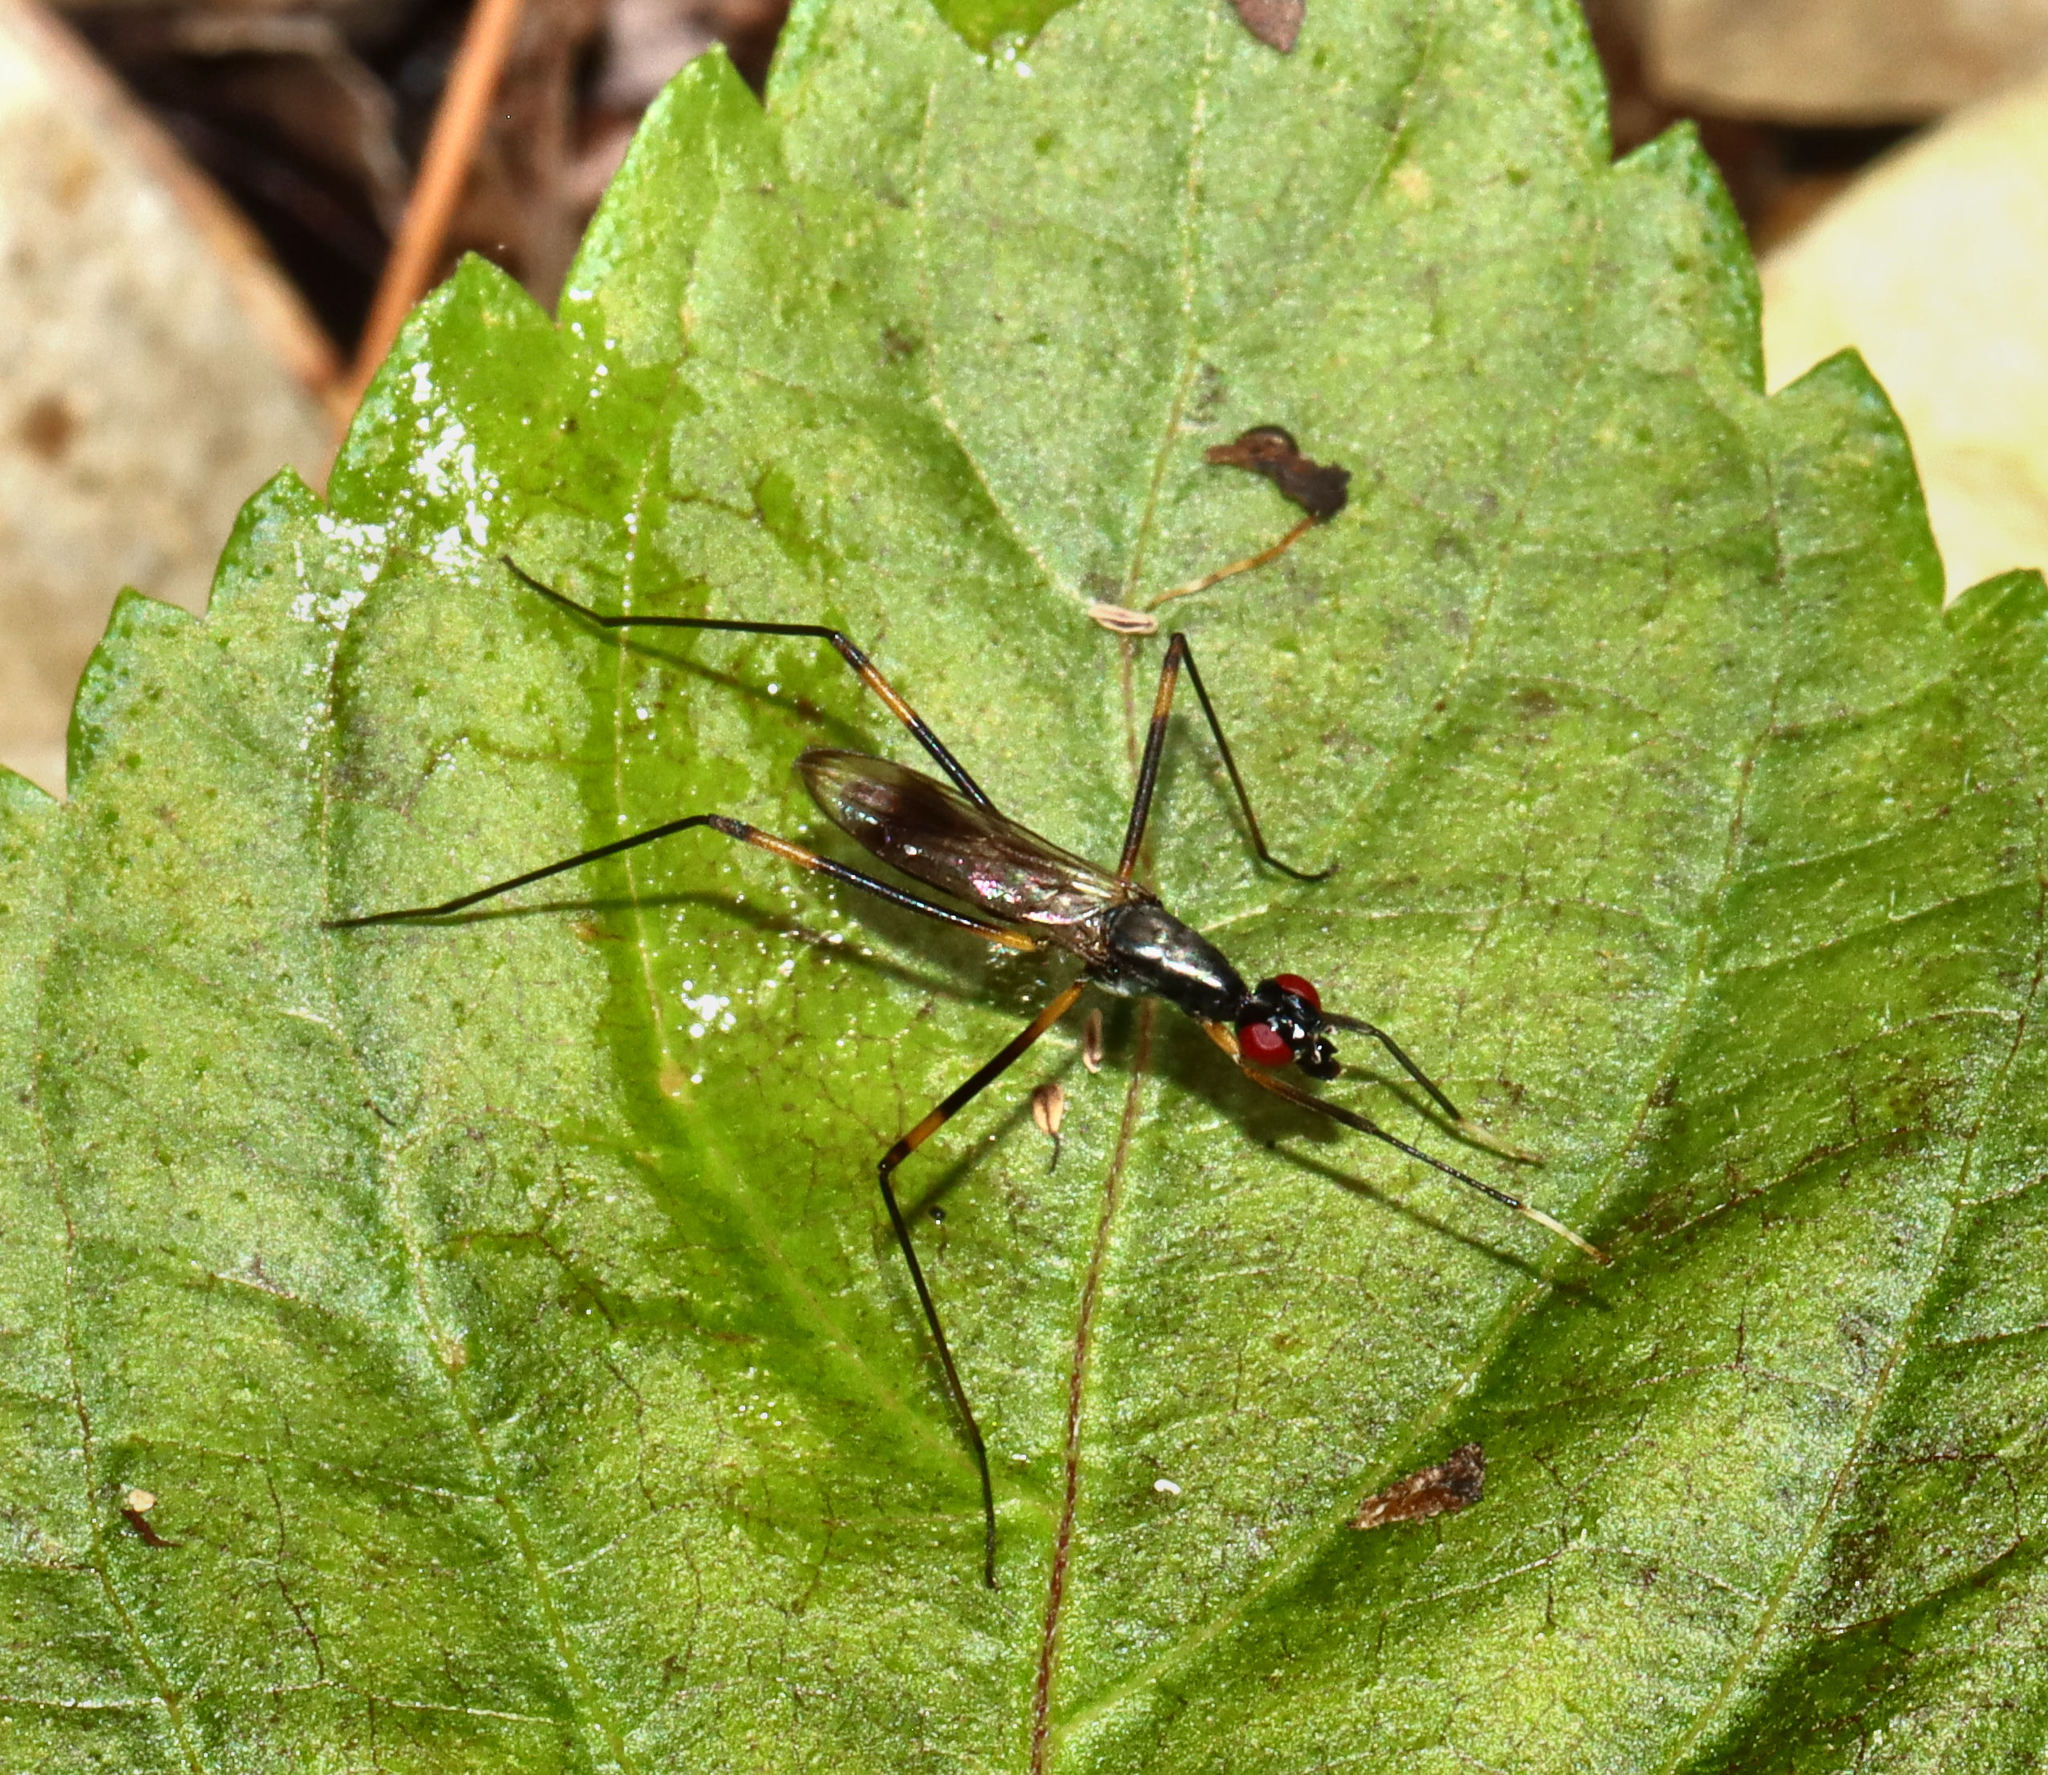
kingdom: Animalia
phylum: Arthropoda
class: Insecta
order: Diptera
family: Micropezidae
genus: Rainieria
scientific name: Rainieria antennaepes
